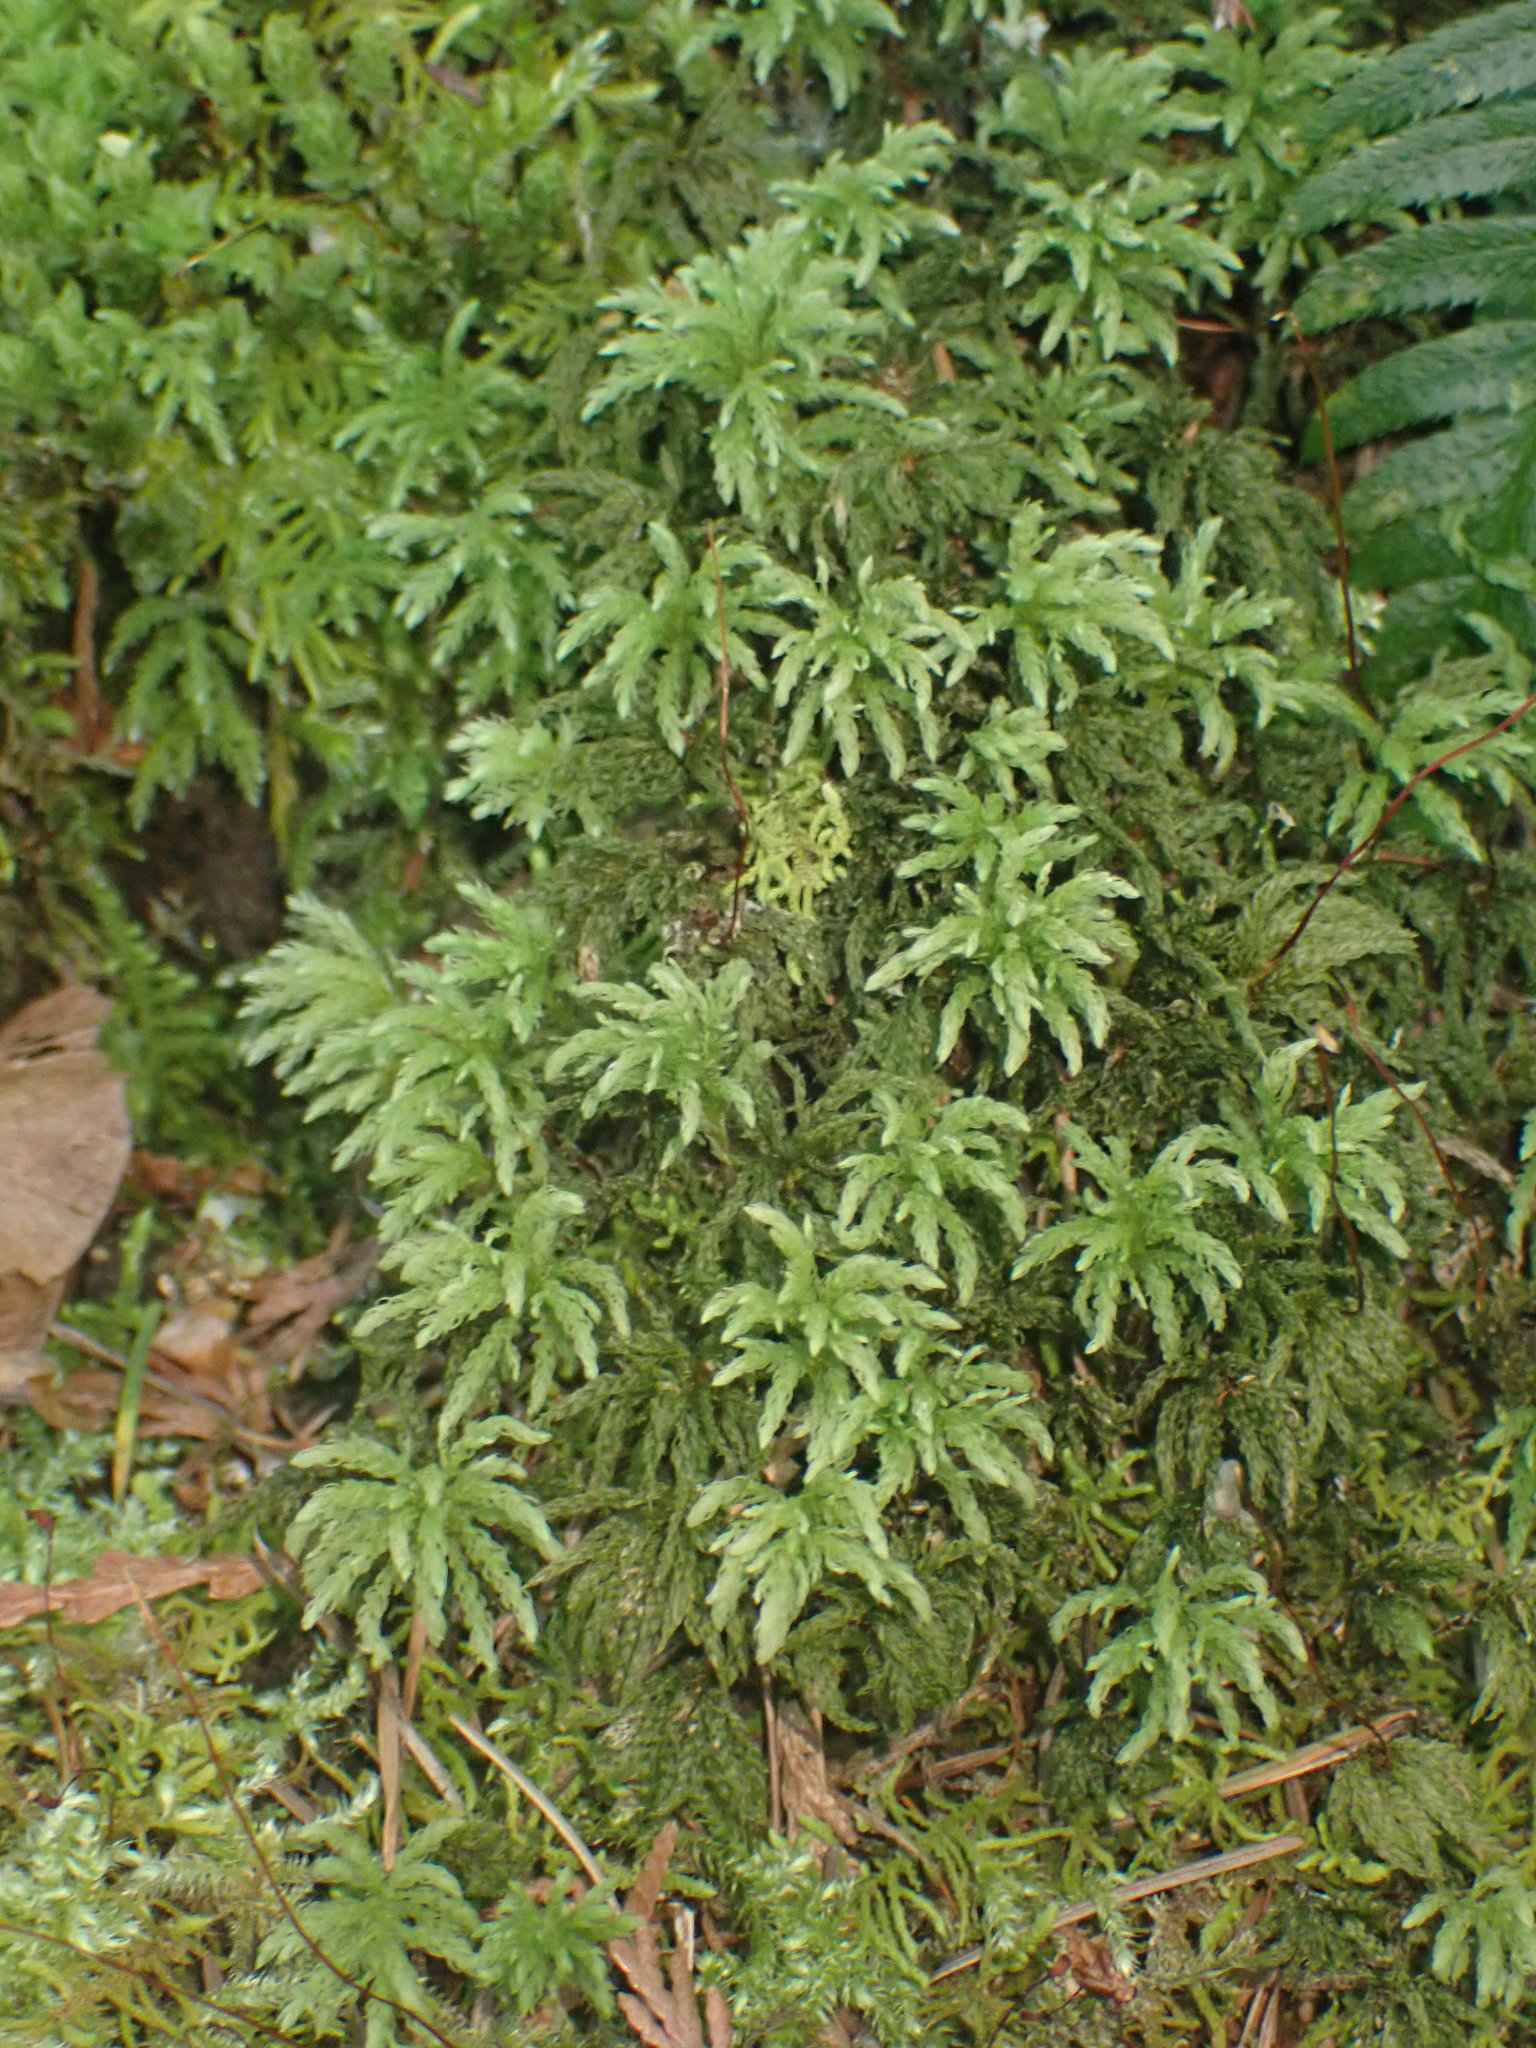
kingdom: Plantae
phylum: Bryophyta
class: Bryopsida
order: Bryales
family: Mniaceae
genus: Leucolepis
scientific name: Leucolepis acanthoneura
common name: Leucolepis umbrella moss
